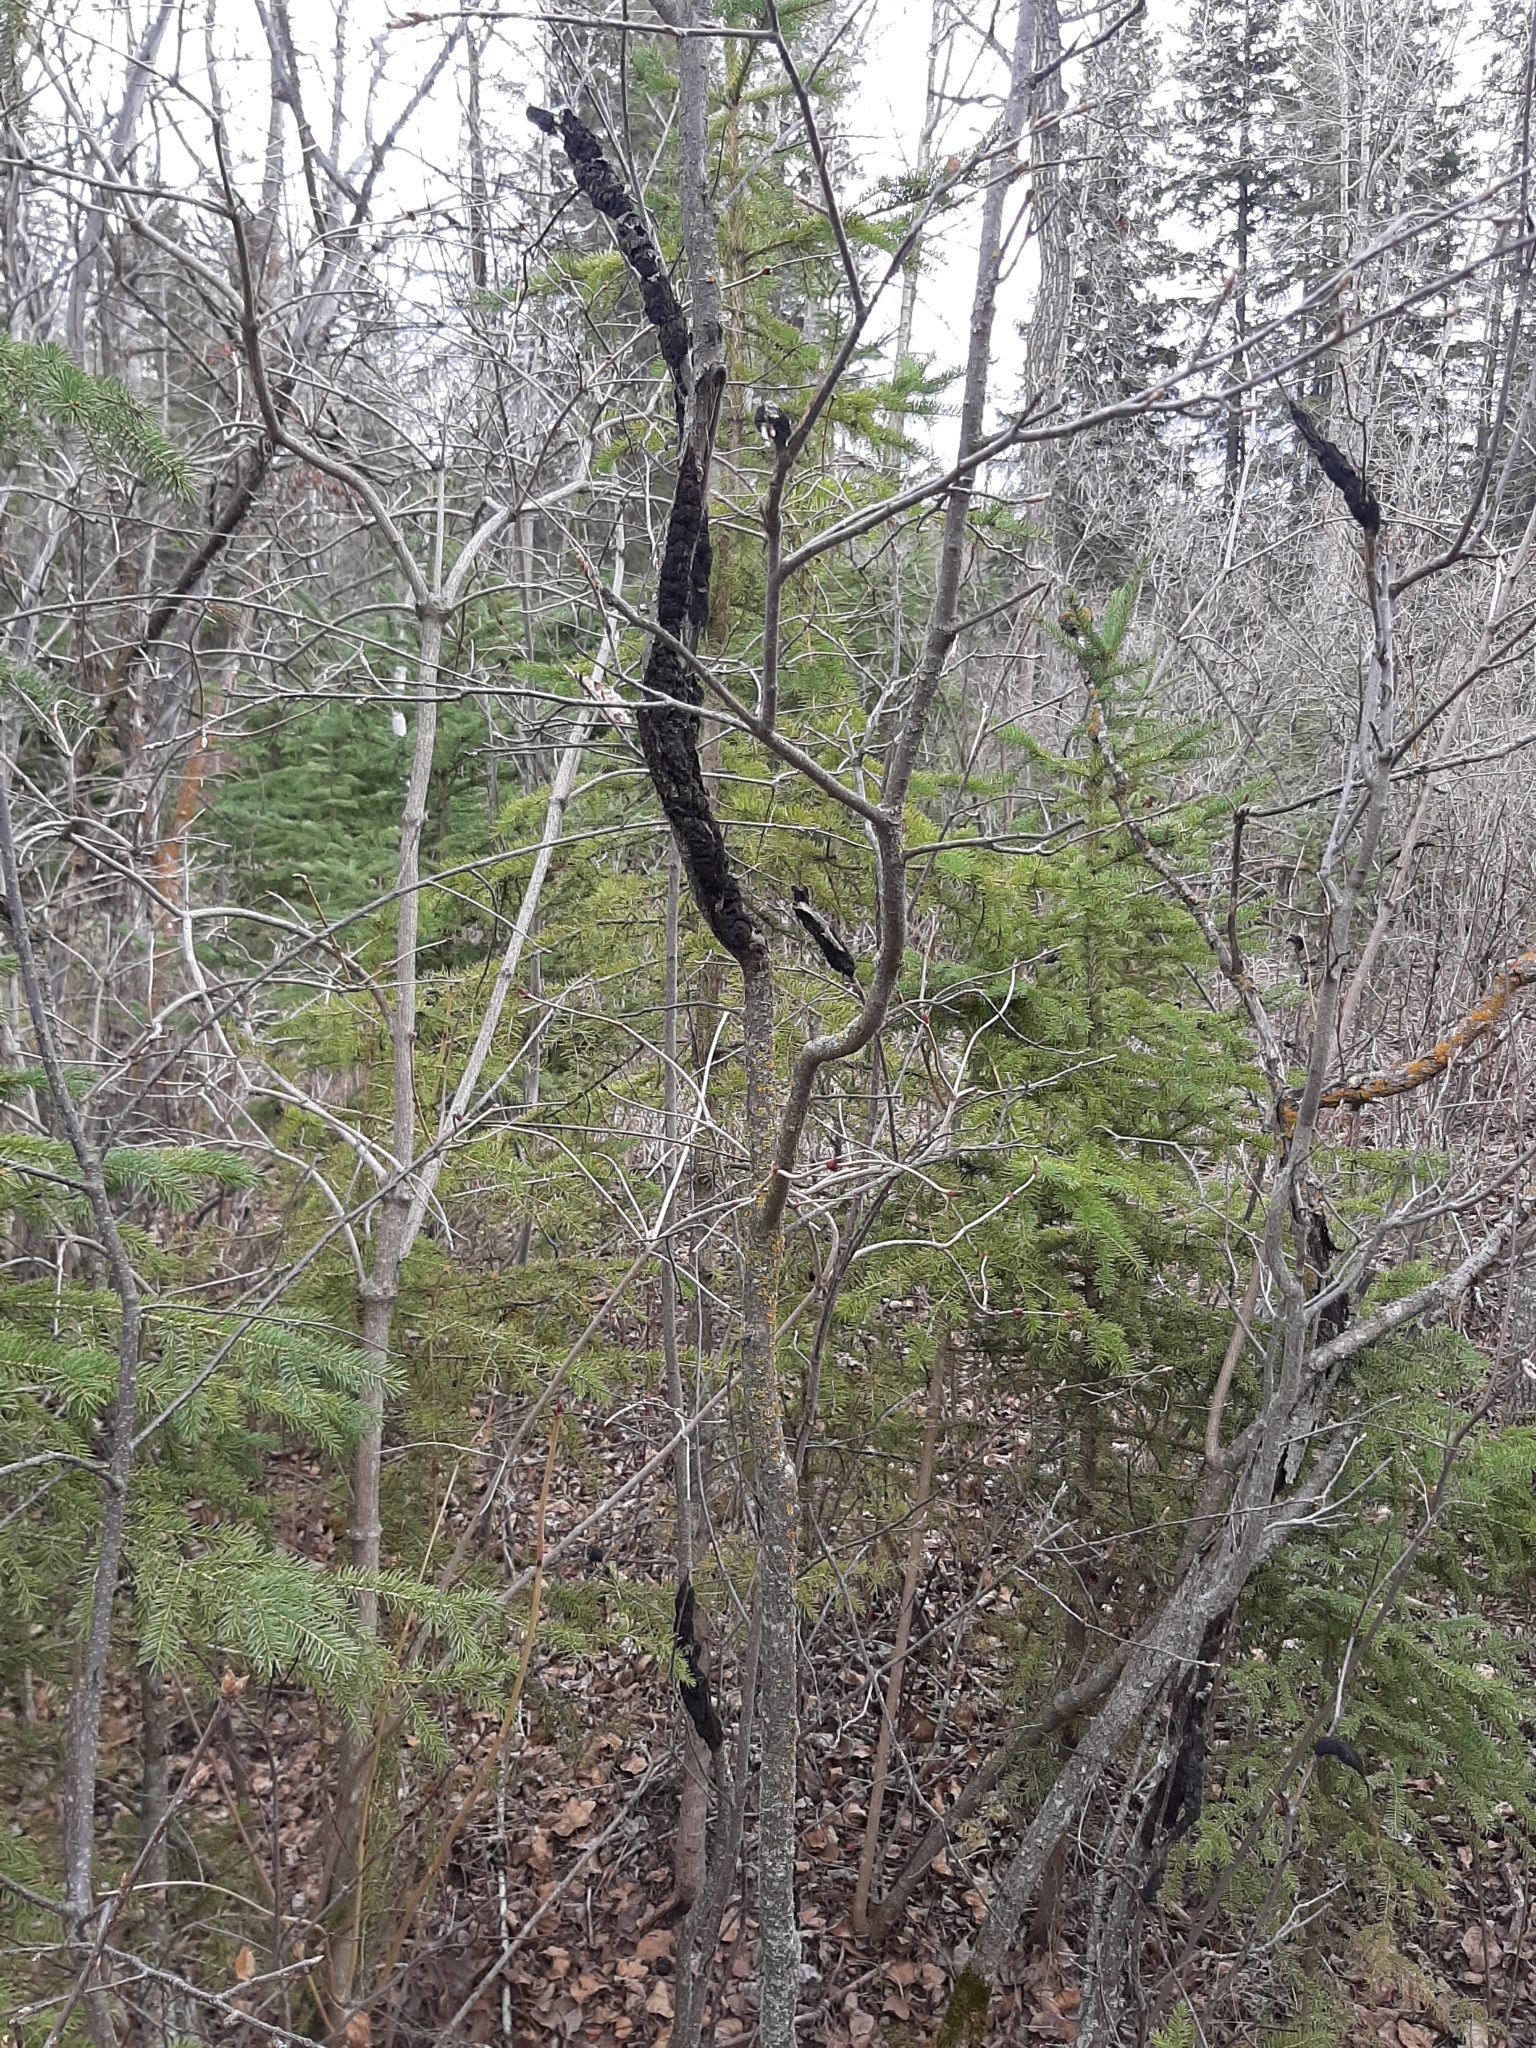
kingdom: Fungi
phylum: Ascomycota
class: Dothideomycetes
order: Venturiales
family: Venturiaceae
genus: Apiosporina
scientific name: Apiosporina morbosa
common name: Black knot
